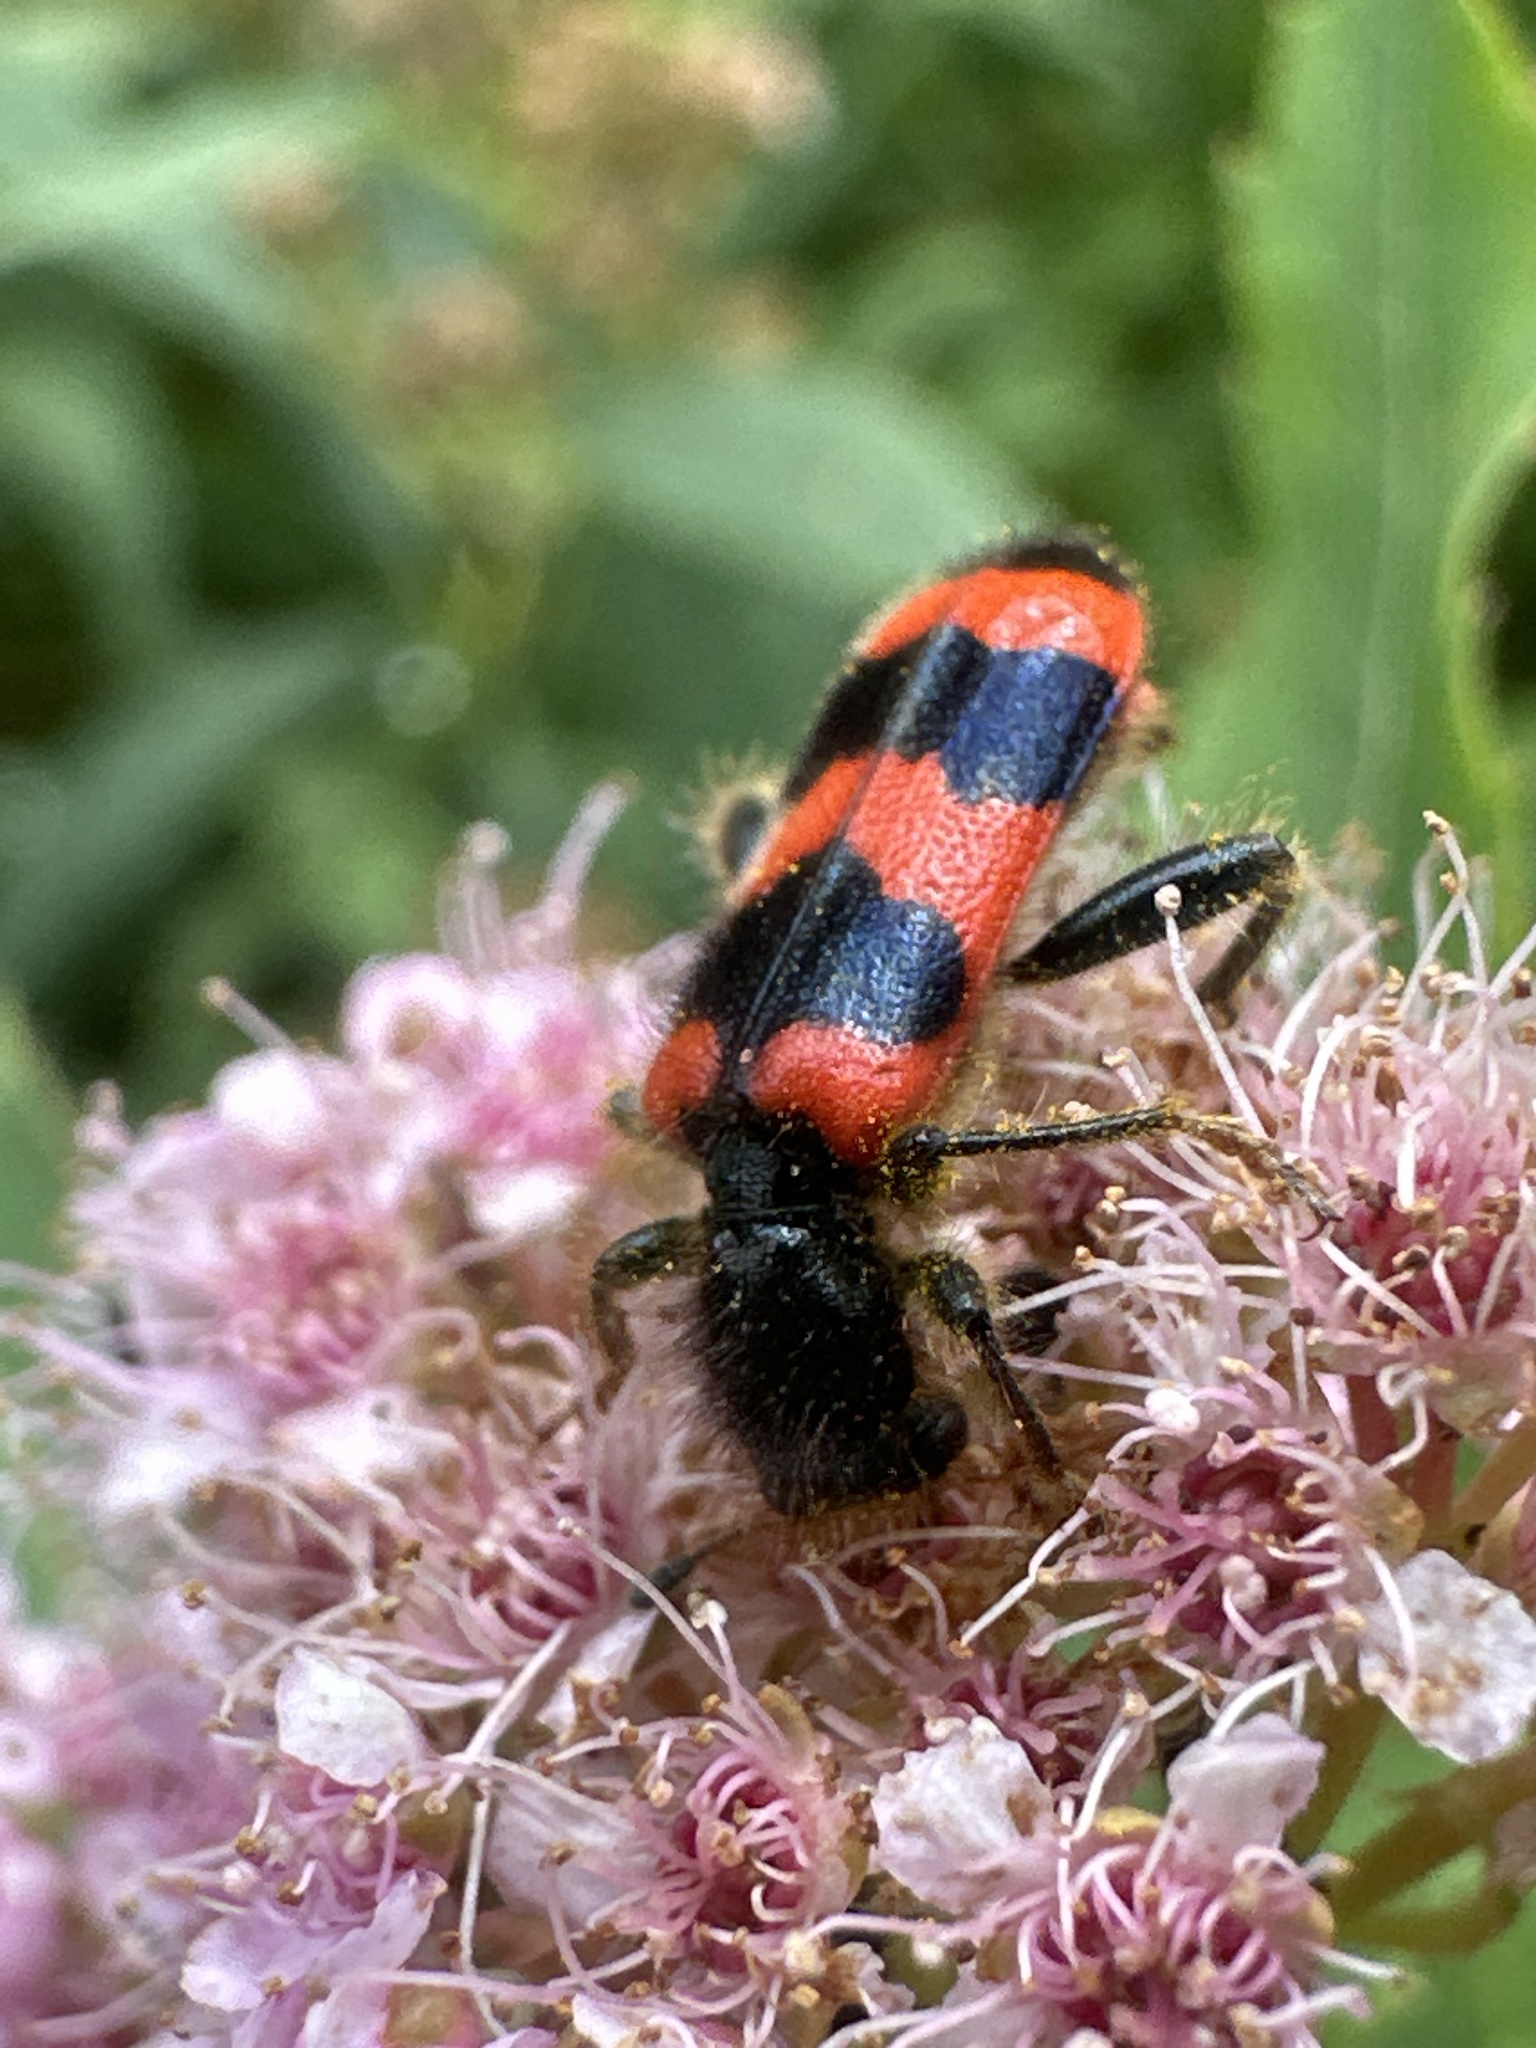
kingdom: Animalia
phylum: Arthropoda
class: Insecta
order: Coleoptera
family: Cleridae
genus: Trichodes
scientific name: Trichodes apiarius
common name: Bee-eating beetle
